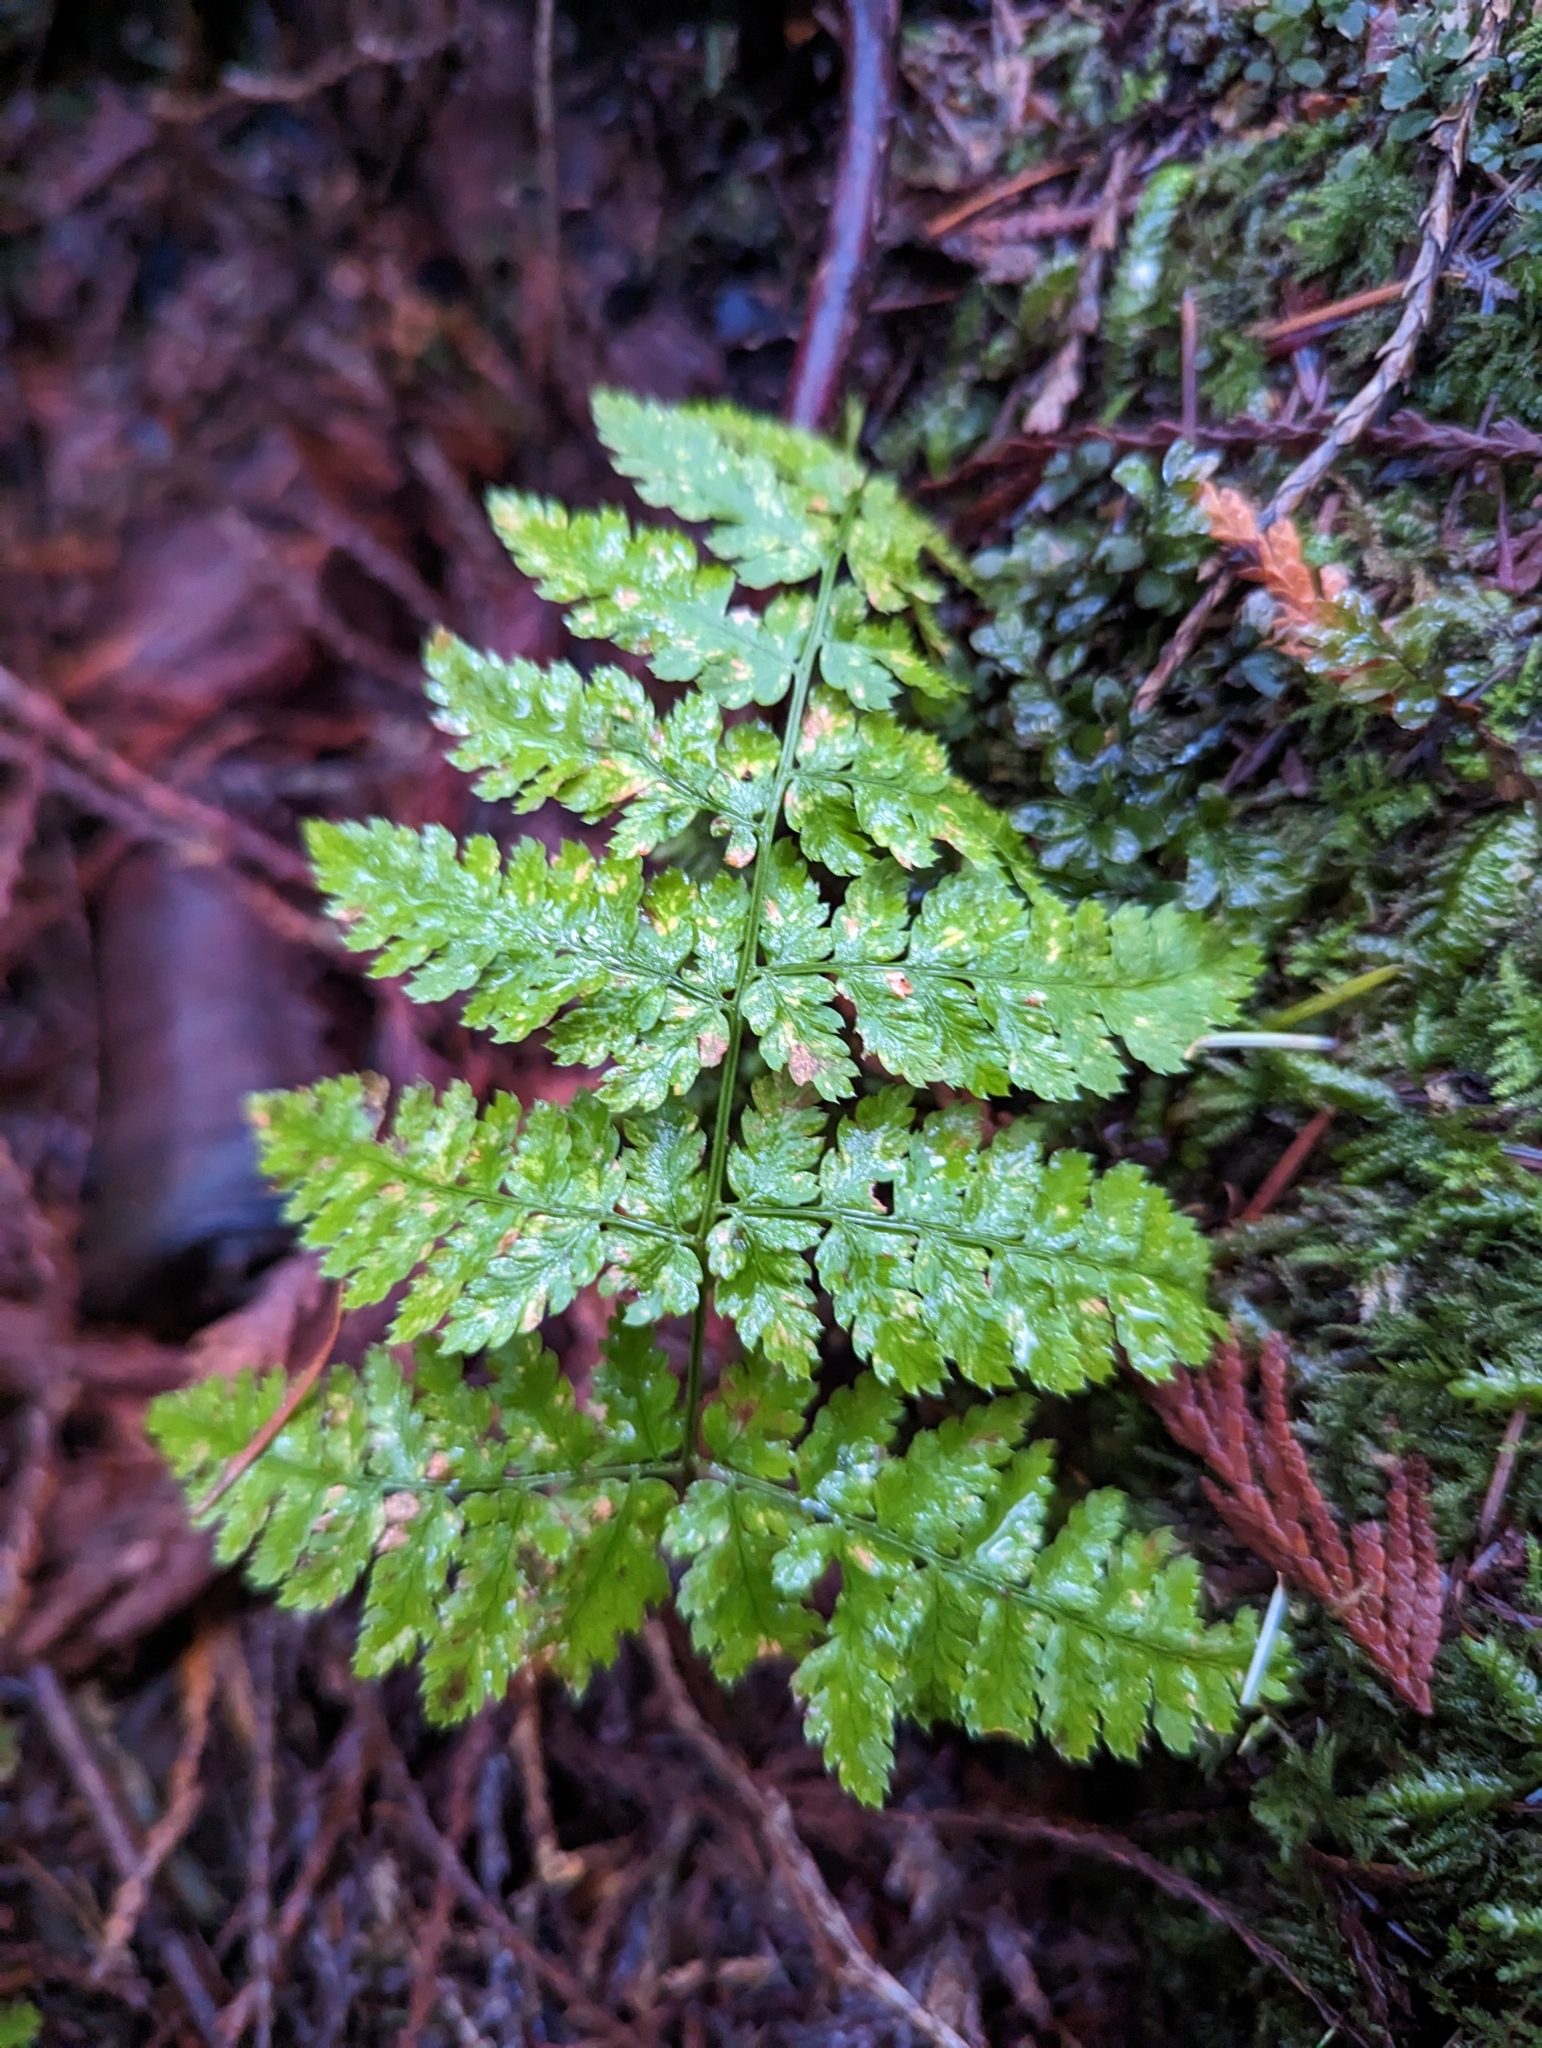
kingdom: Plantae
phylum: Tracheophyta
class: Polypodiopsida
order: Polypodiales
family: Dryopteridaceae
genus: Dryopteris
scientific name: Dryopteris expansa
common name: Northern buckler fern
